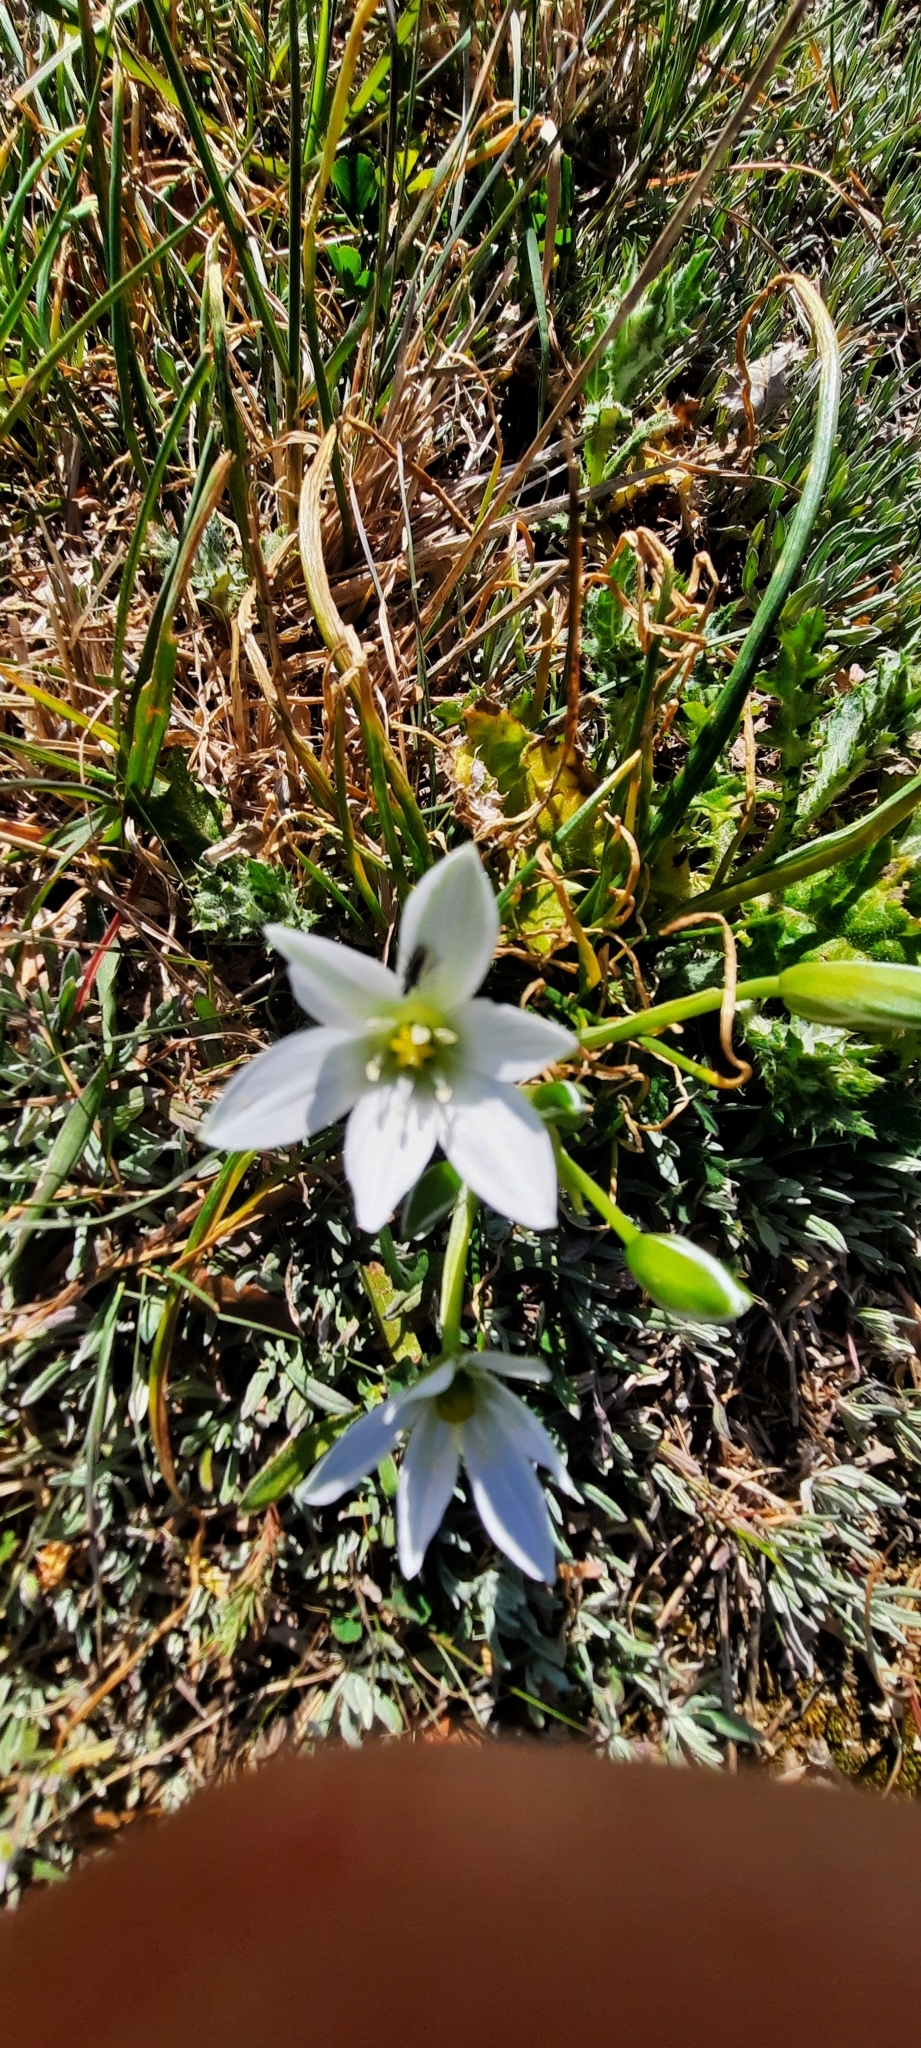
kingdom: Plantae
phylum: Tracheophyta
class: Liliopsida
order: Asparagales
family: Asparagaceae
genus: Ornithogalum
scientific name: Ornithogalum umbellatum
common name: Garden star-of-bethlehem
